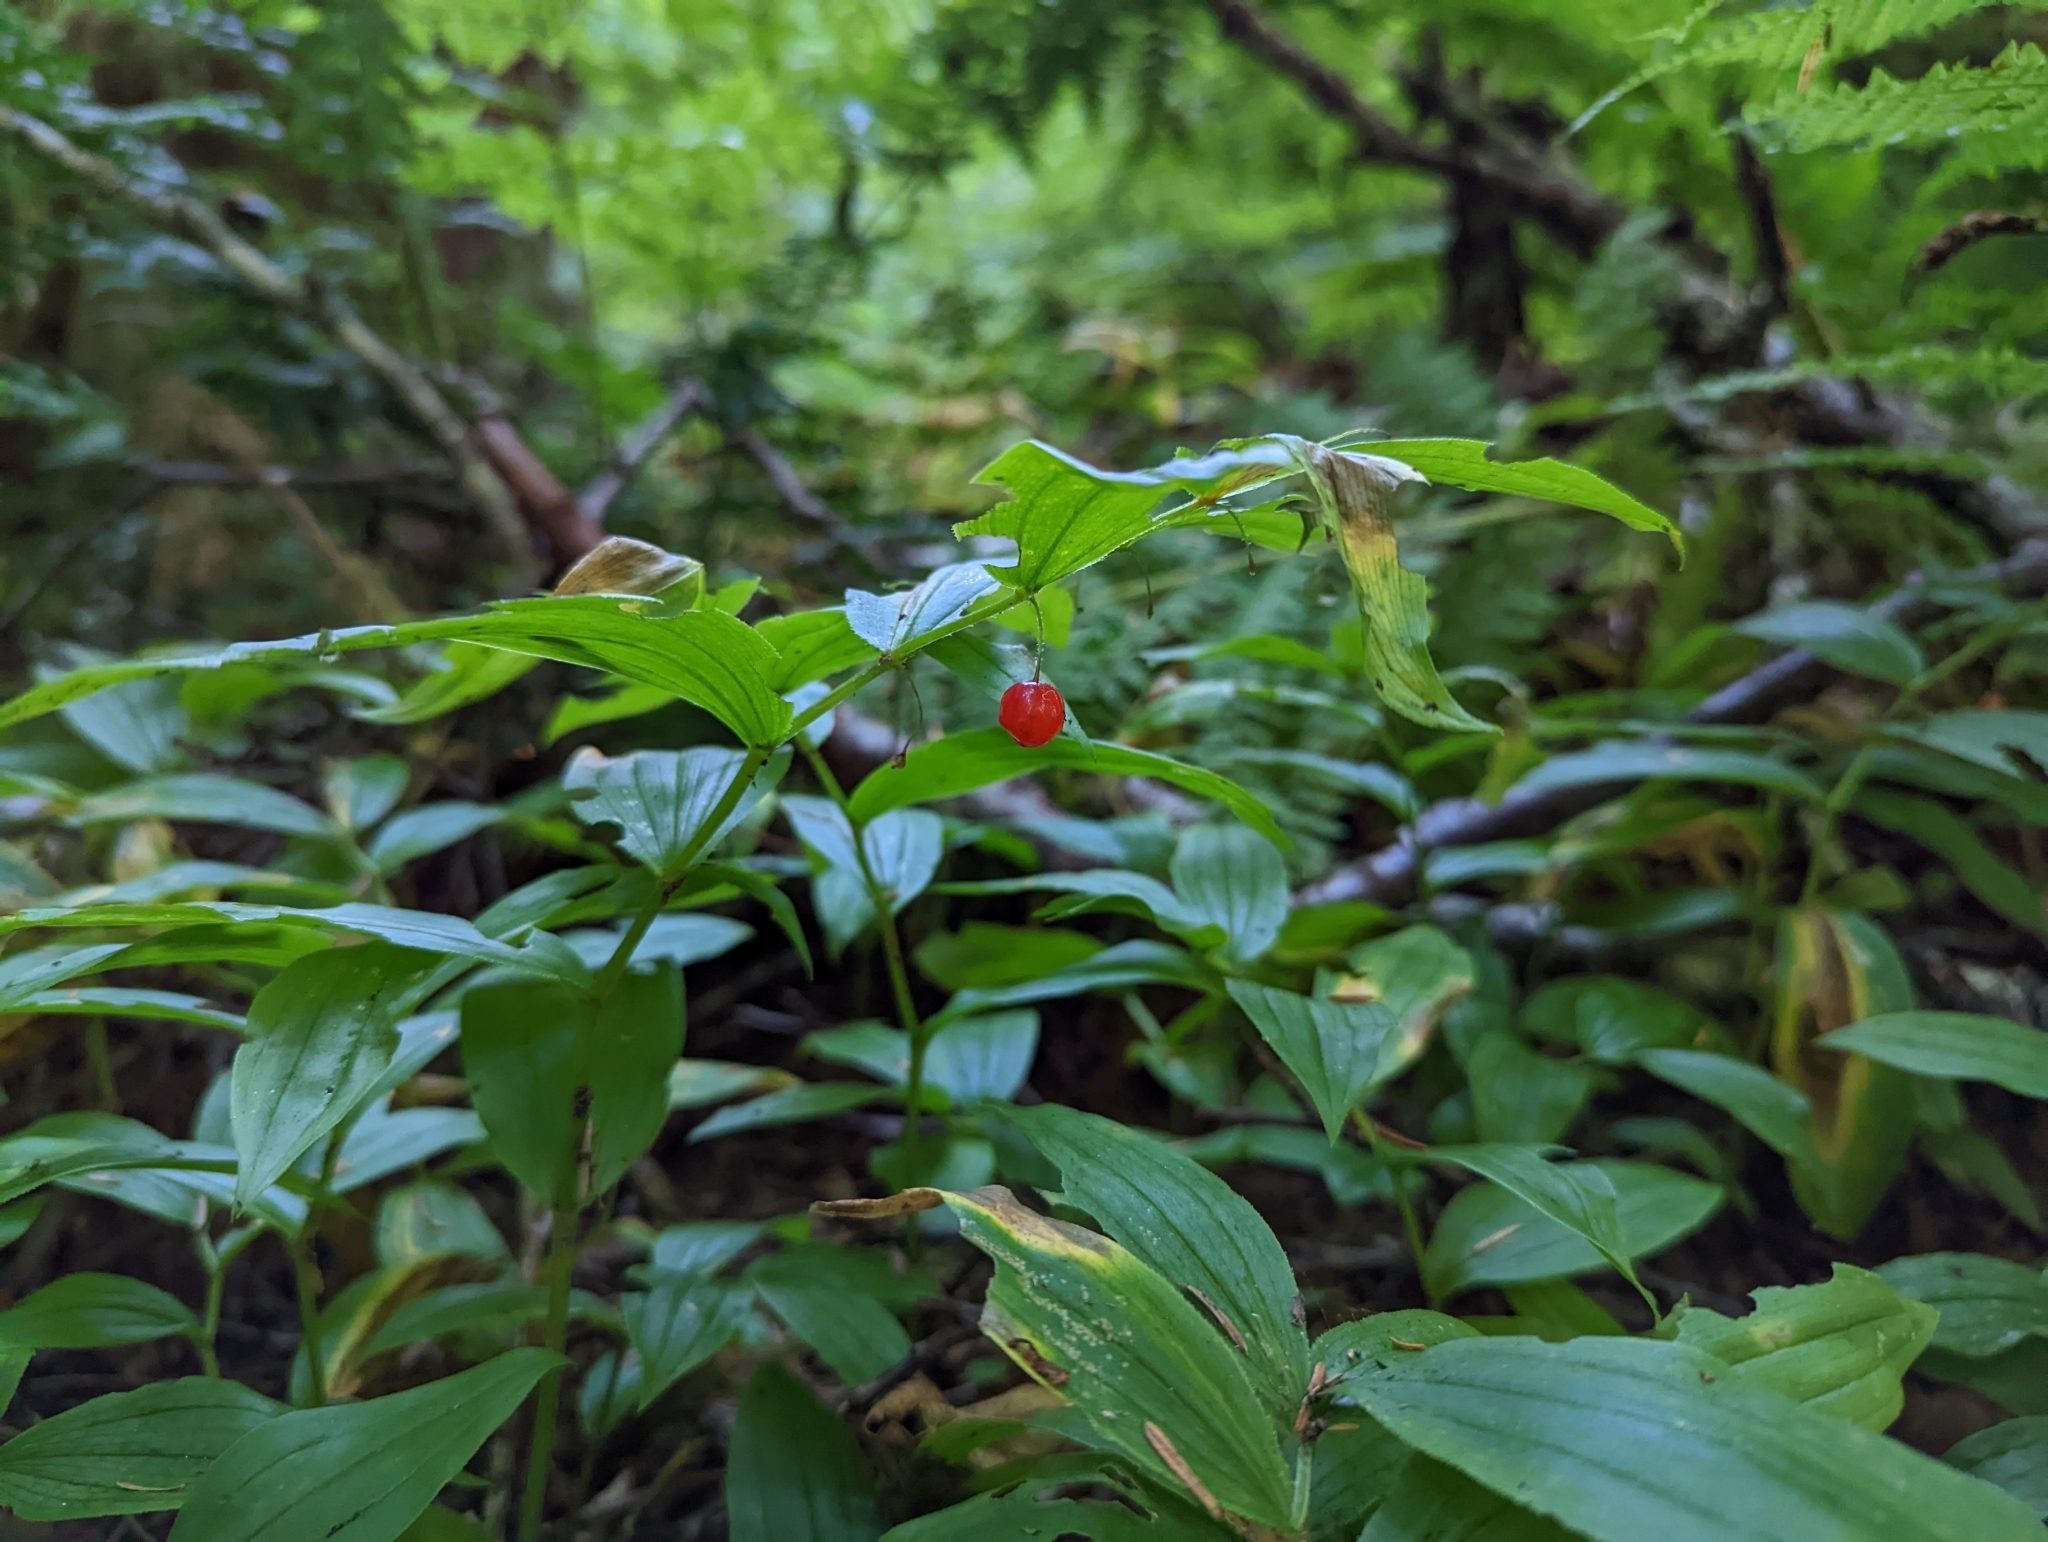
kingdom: Plantae
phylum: Tracheophyta
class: Liliopsida
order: Liliales
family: Liliaceae
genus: Streptopus
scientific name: Streptopus lanceolatus
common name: Rose mandarin
